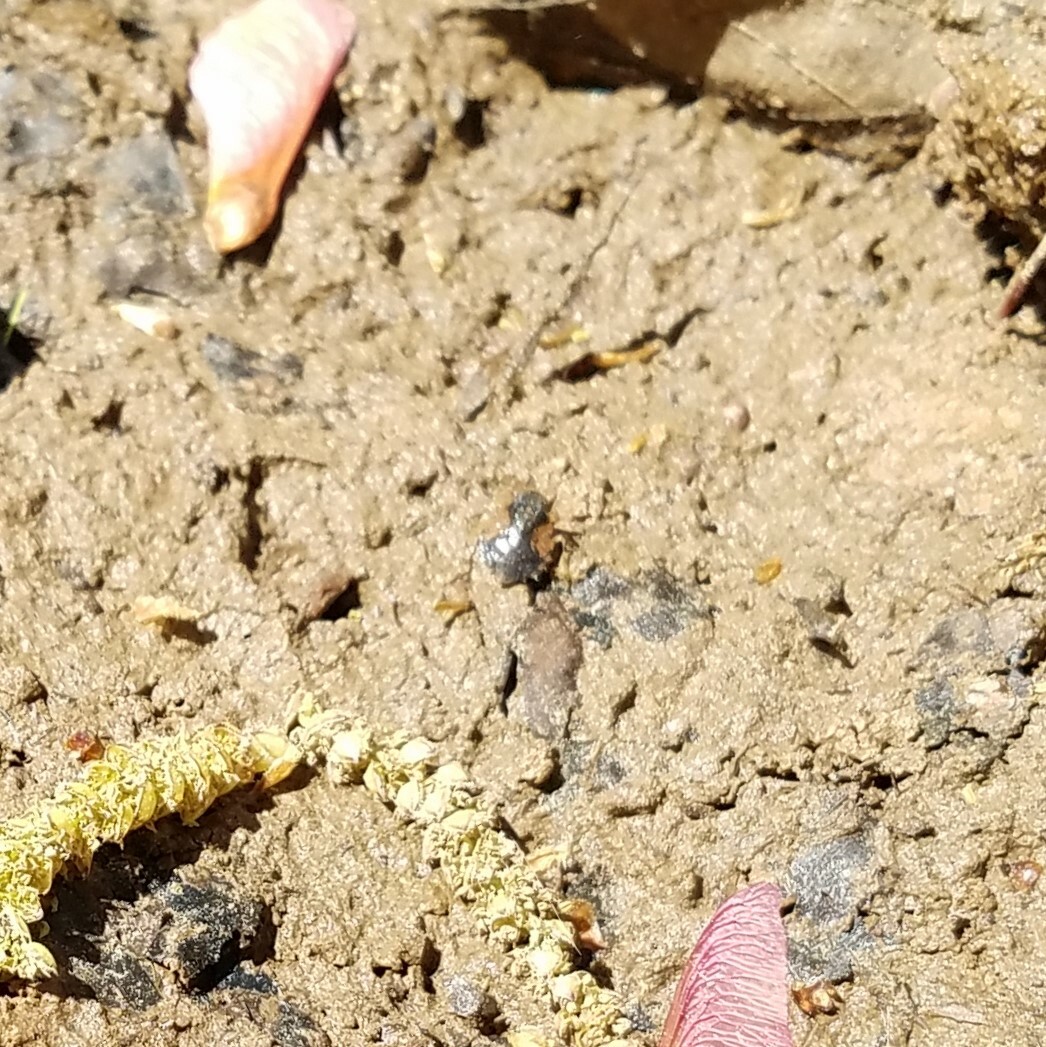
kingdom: Animalia
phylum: Arthropoda
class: Insecta
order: Hemiptera
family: Gelastocoridae
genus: Gelastocoris
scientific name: Gelastocoris oculatus
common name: Toad bug
